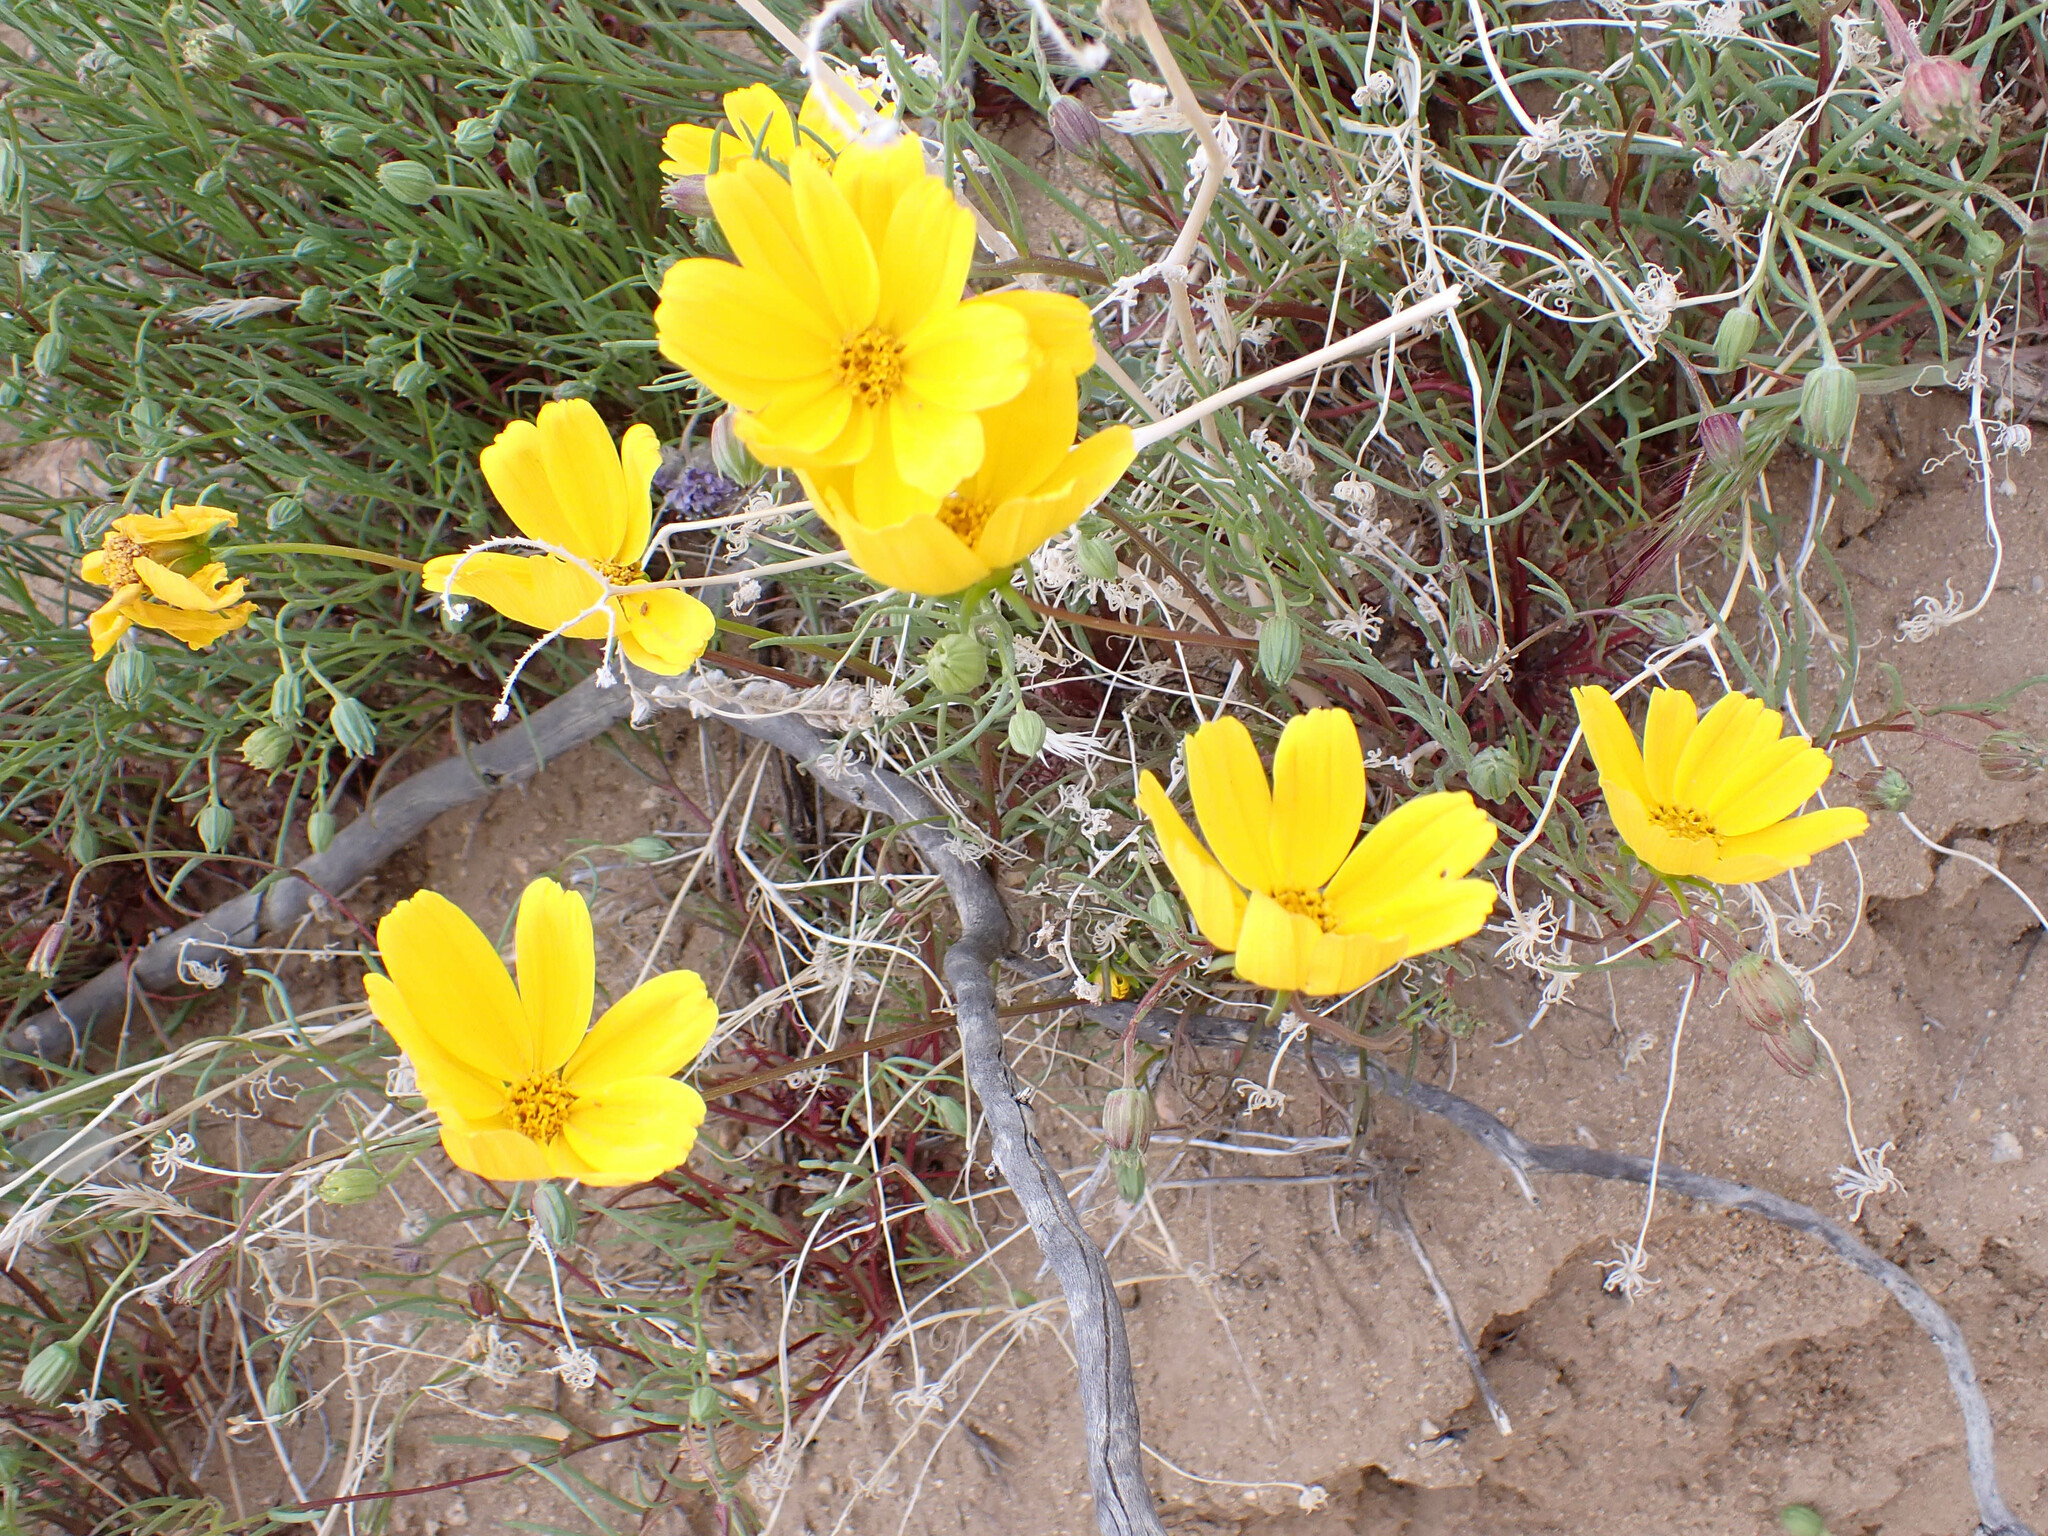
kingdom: Plantae
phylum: Tracheophyta
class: Magnoliopsida
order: Asterales
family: Asteraceae
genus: Coreopsis
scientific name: Coreopsis bigelovii
